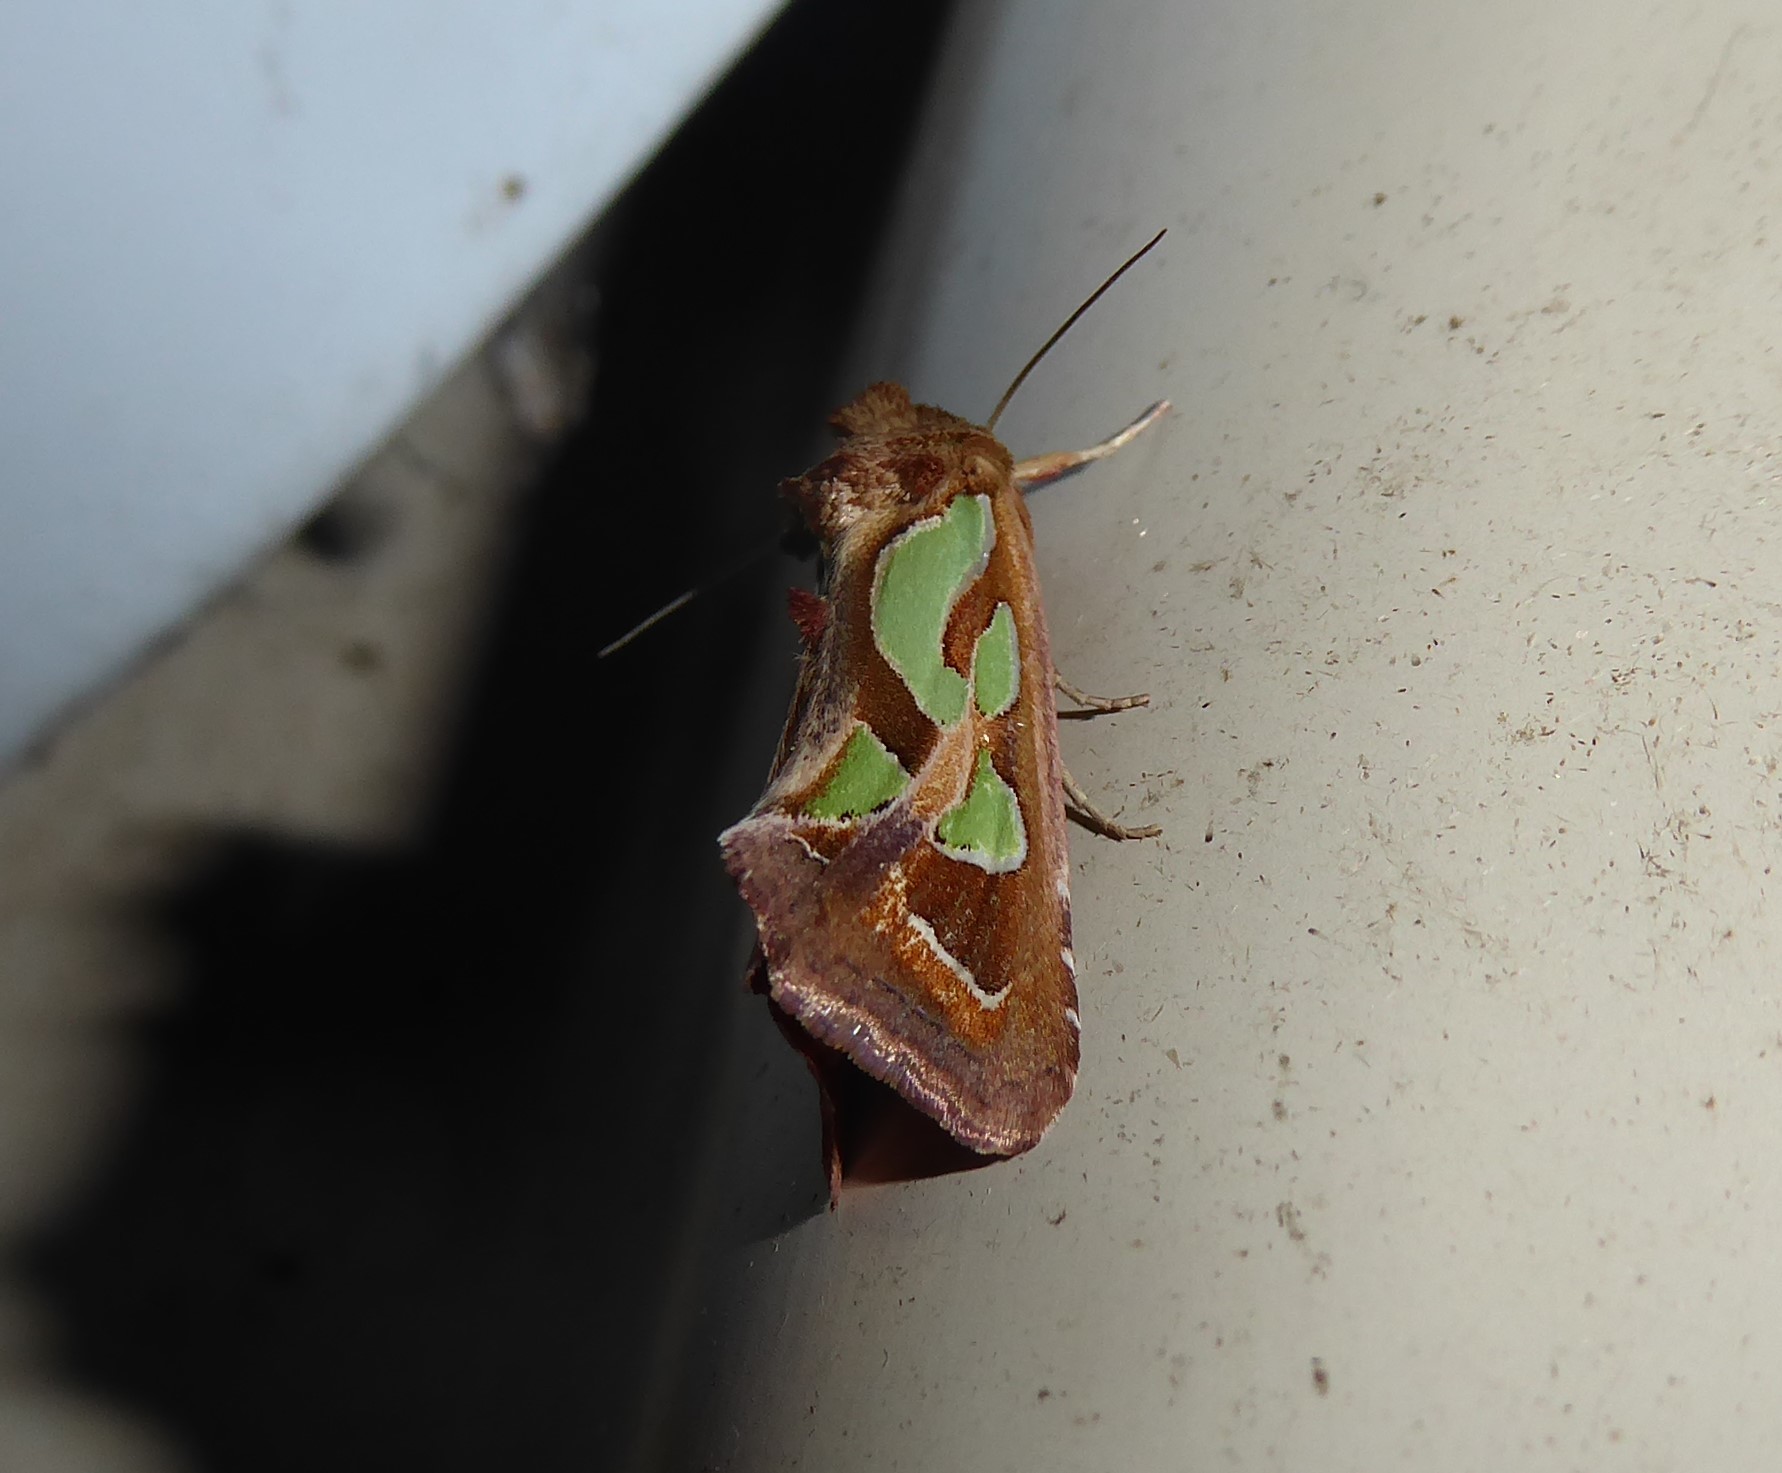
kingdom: Animalia
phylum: Arthropoda
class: Insecta
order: Lepidoptera
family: Noctuidae
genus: Cosmodes
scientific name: Cosmodes elegans
